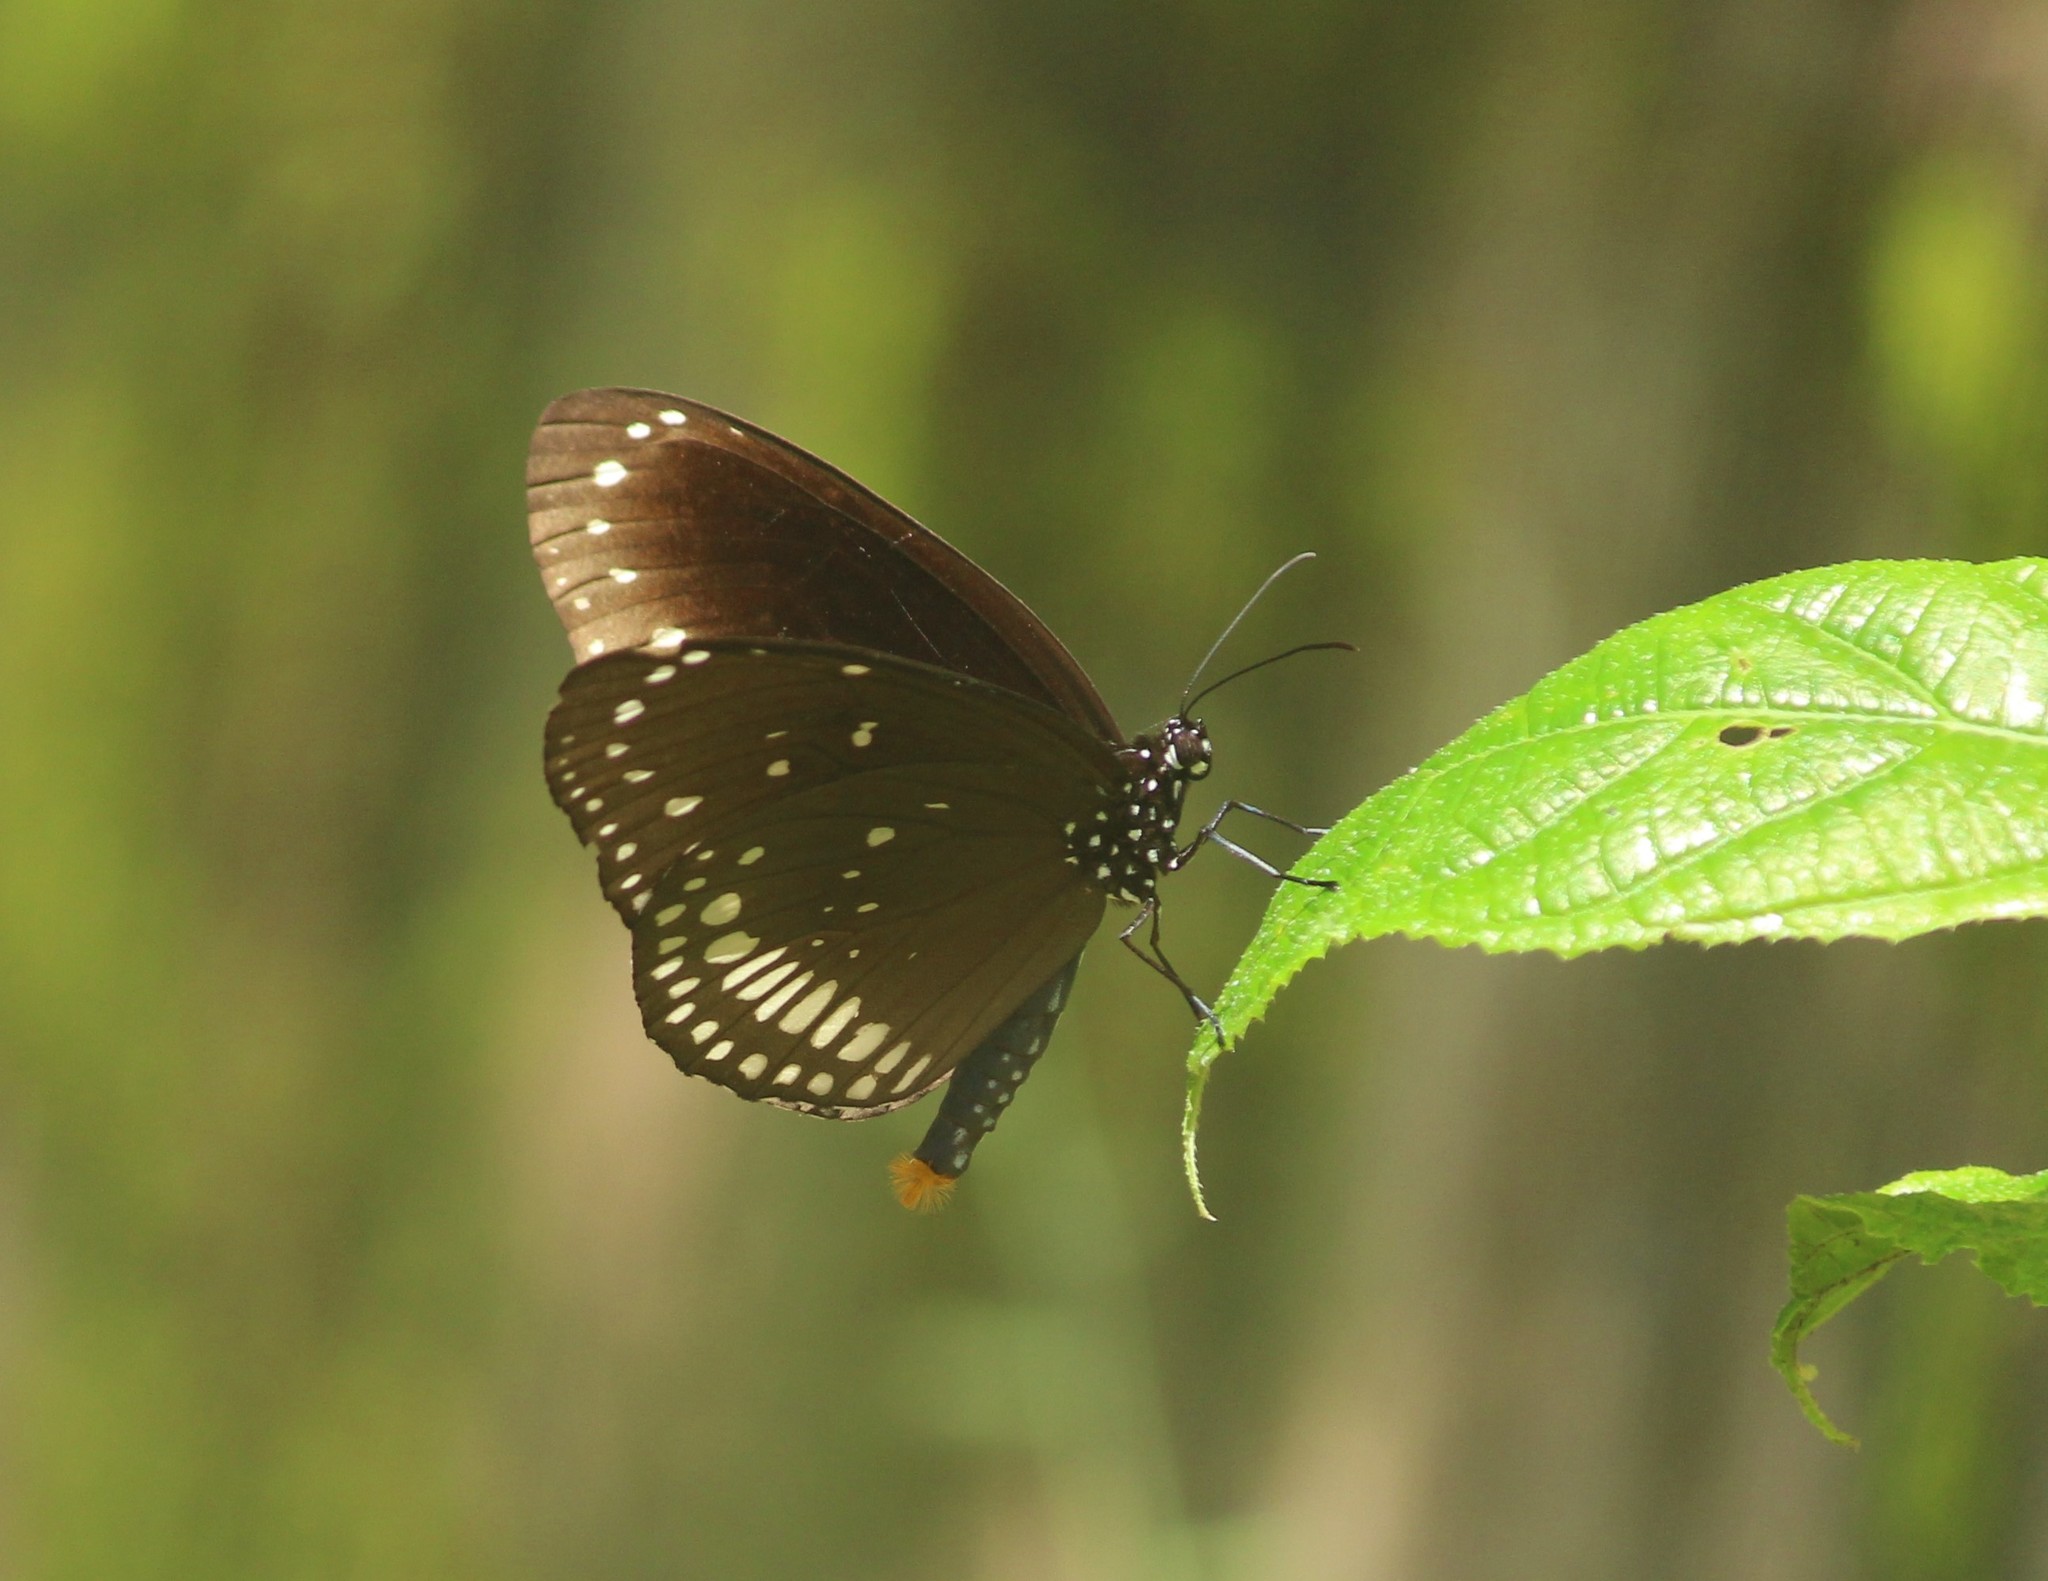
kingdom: Animalia
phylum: Arthropoda
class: Insecta
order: Lepidoptera
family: Nymphalidae
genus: Euploea
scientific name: Euploea core
